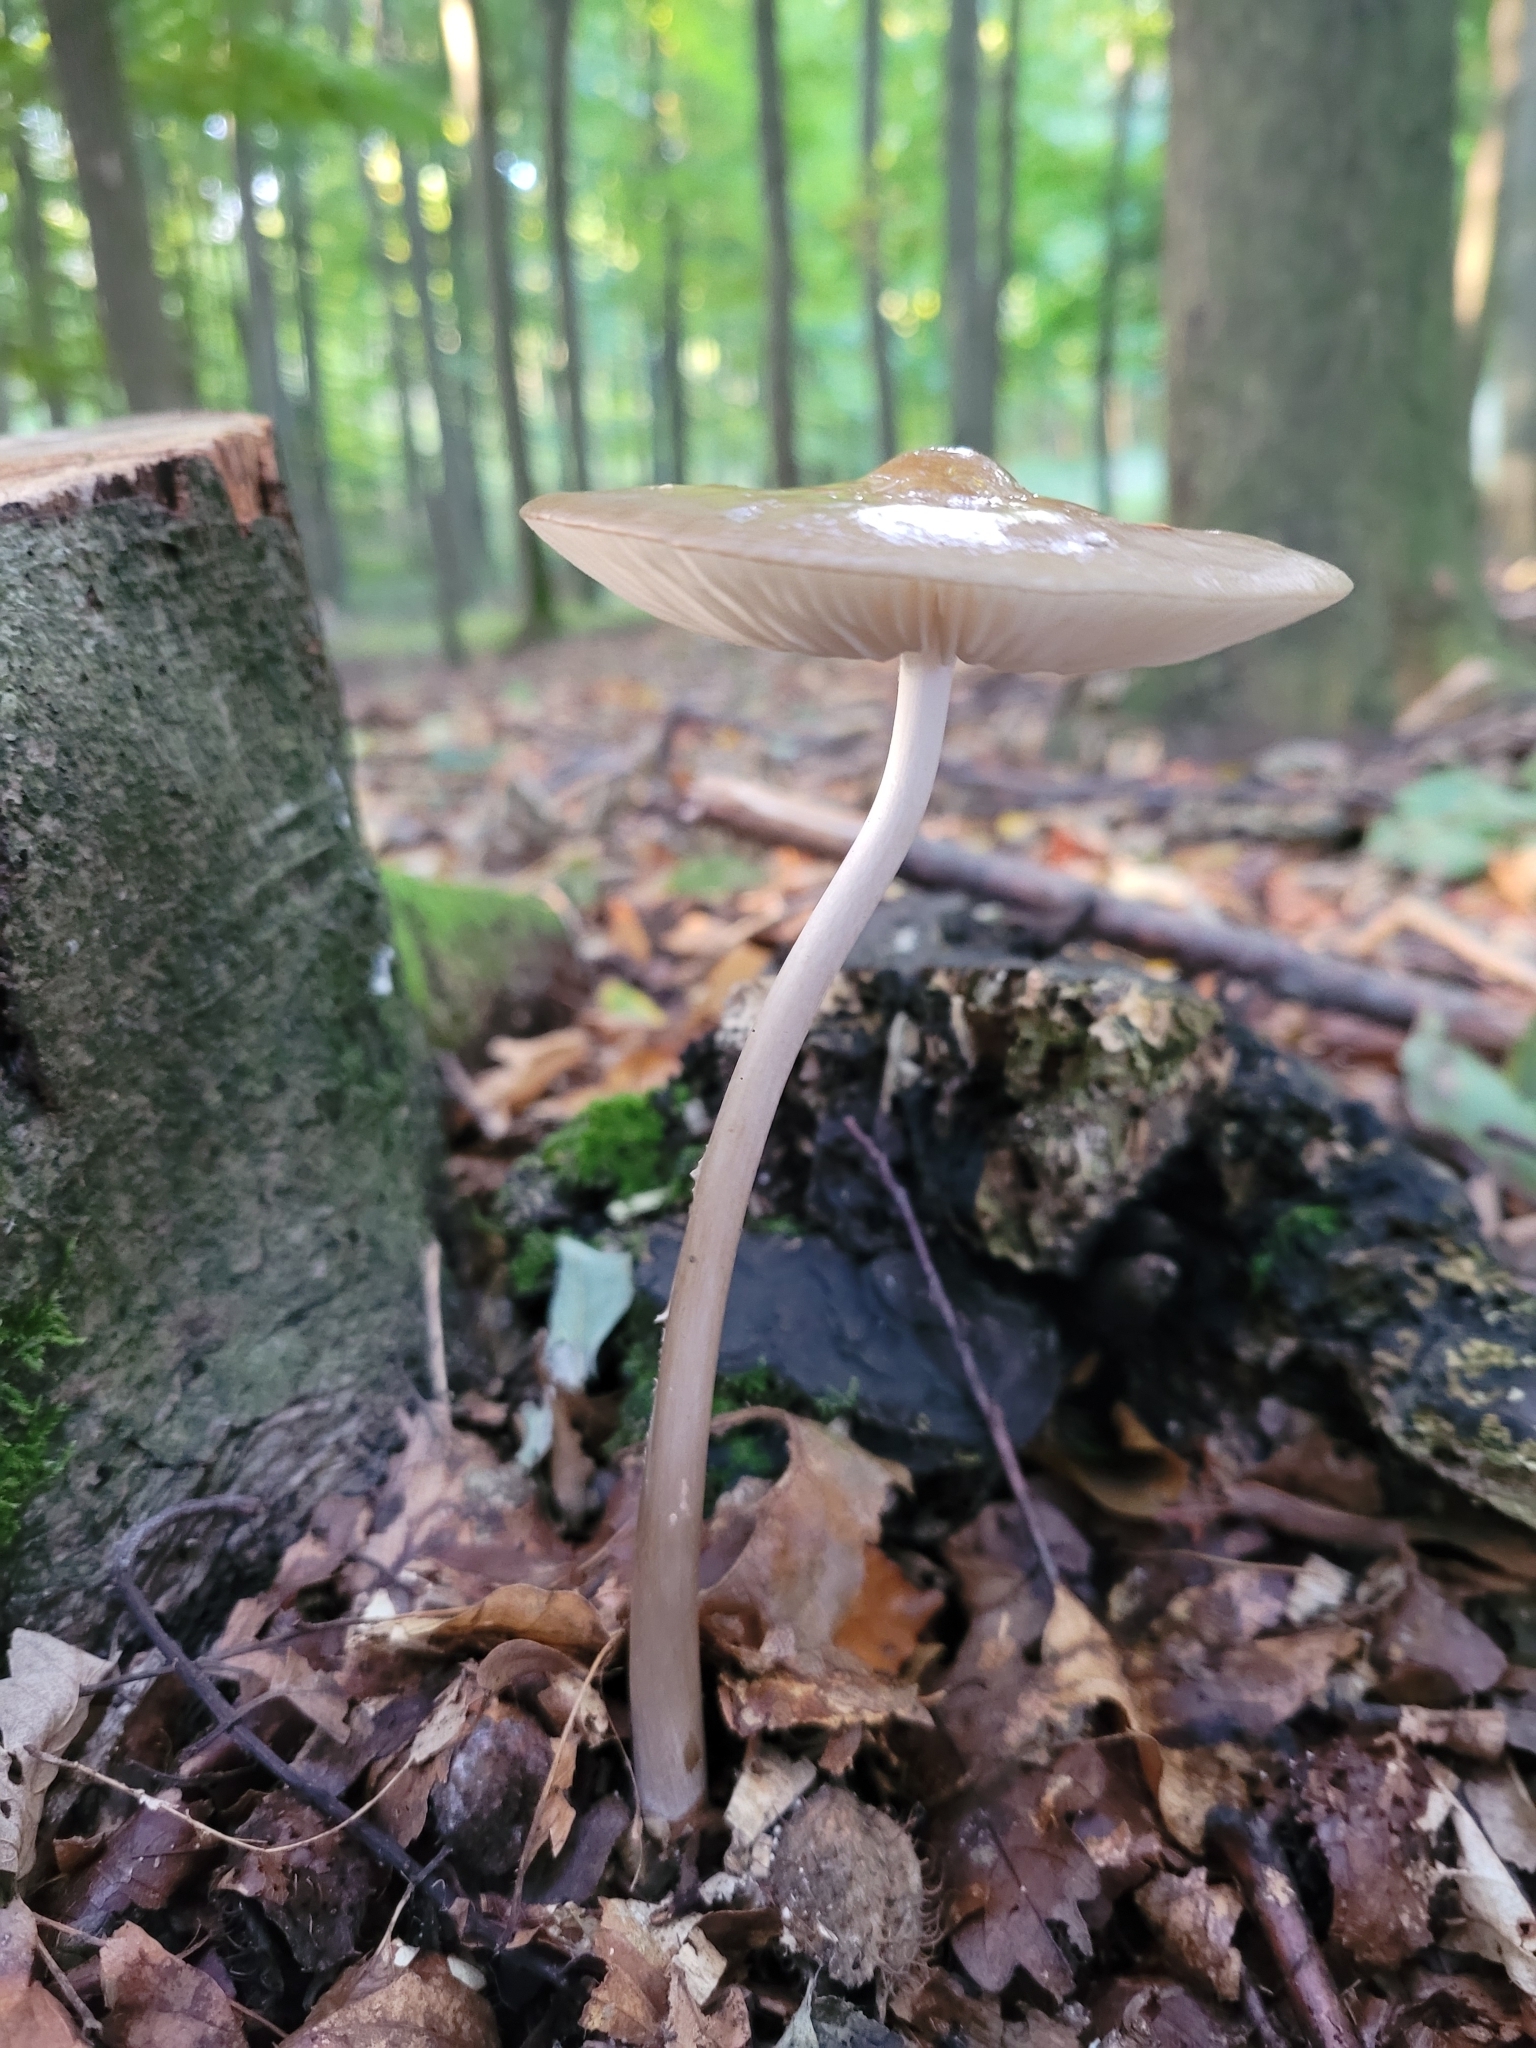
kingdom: Fungi
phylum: Basidiomycota
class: Agaricomycetes
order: Agaricales
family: Physalacriaceae
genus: Hymenopellis
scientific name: Hymenopellis radicata
